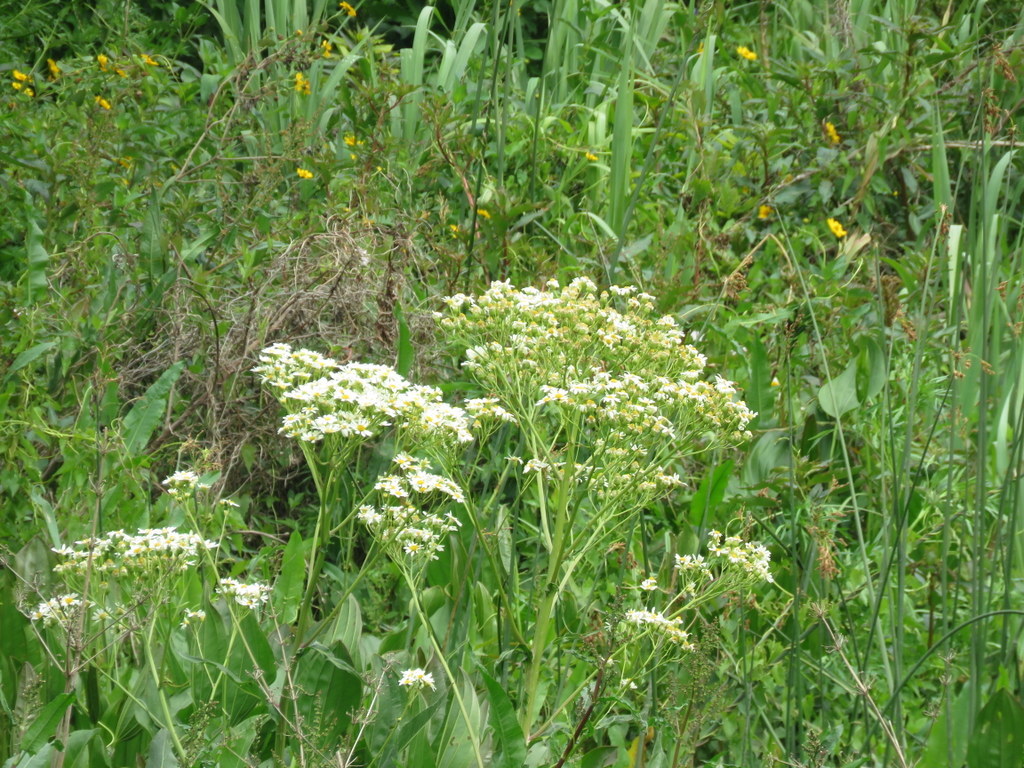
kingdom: Plantae
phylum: Tracheophyta
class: Magnoliopsida
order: Asterales
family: Asteraceae
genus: Senecio
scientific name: Senecio bonariensis
